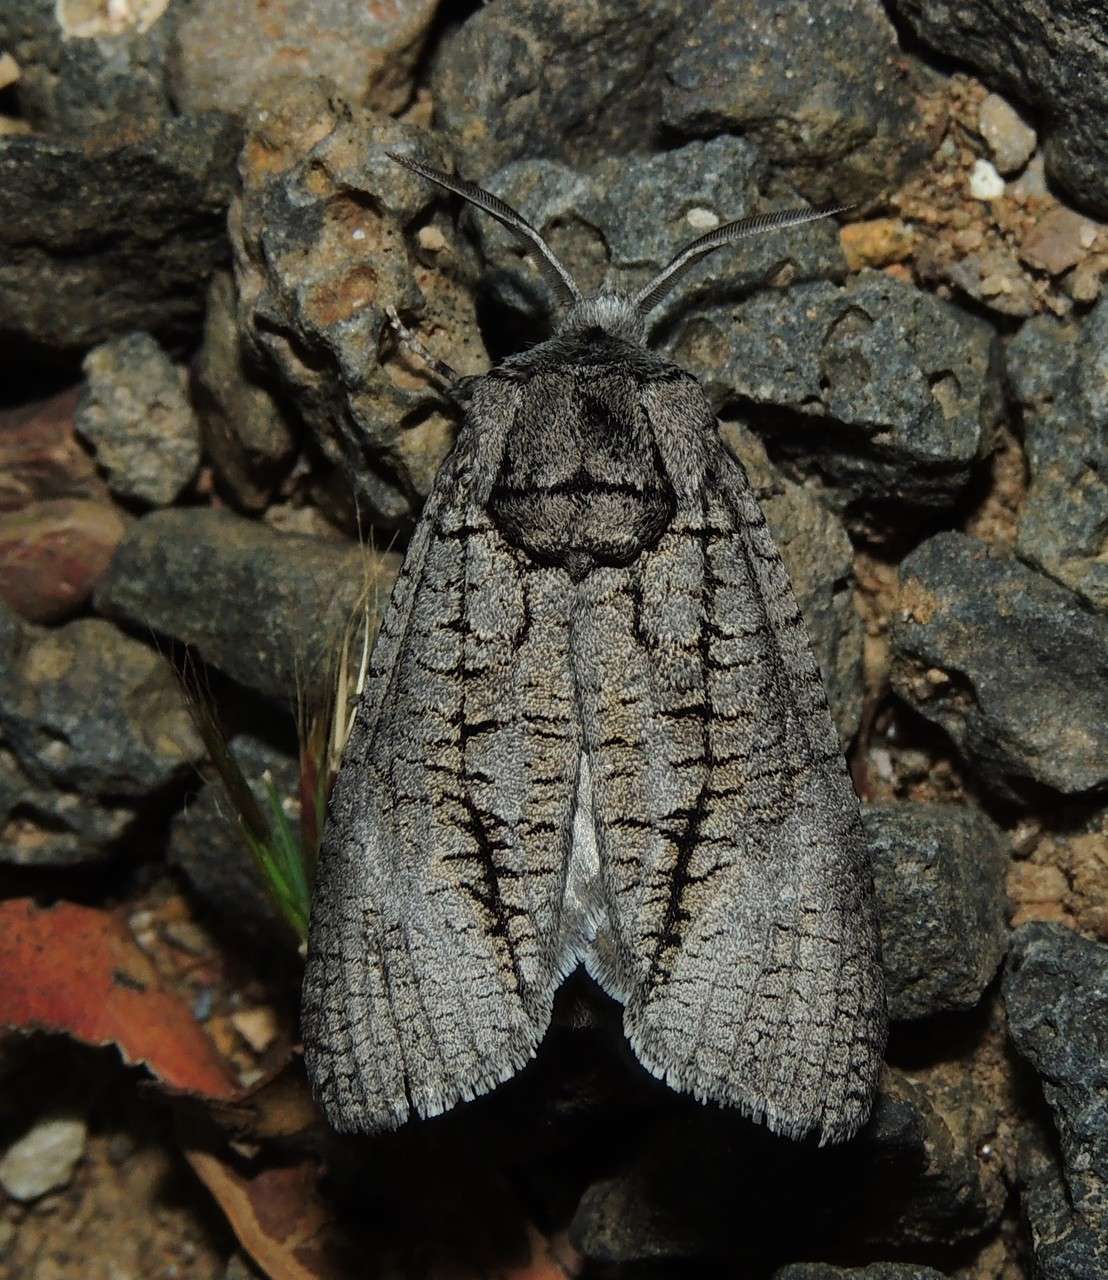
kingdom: Animalia
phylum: Arthropoda
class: Insecta
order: Lepidoptera
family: Cossidae
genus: Culama
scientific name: Culama australis
